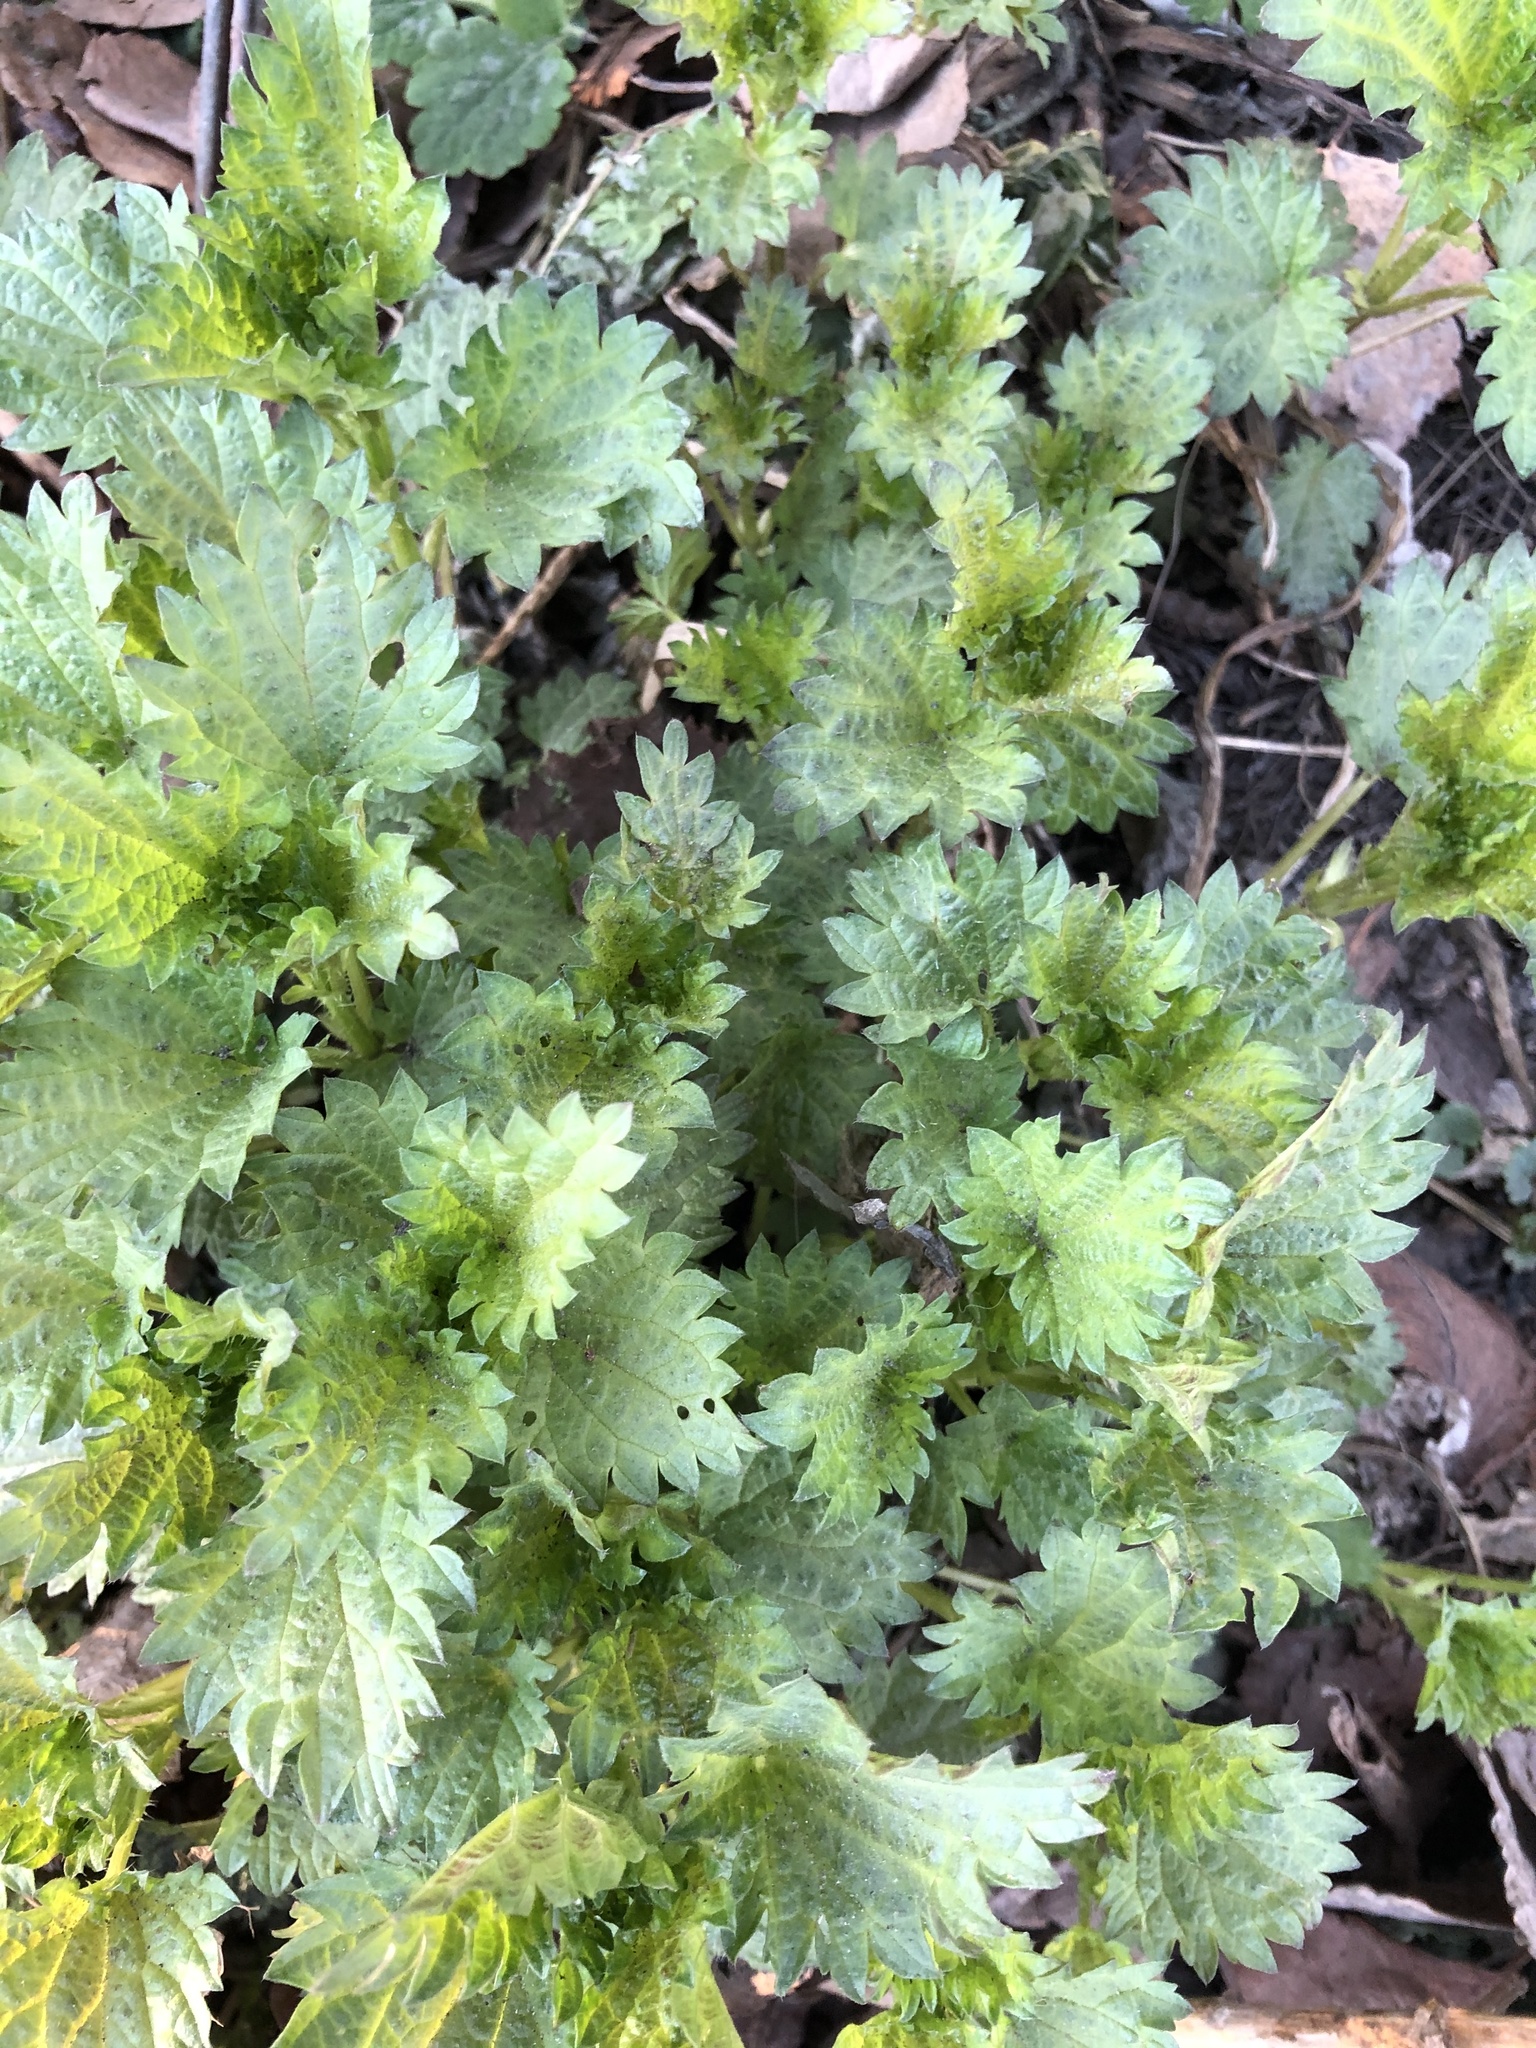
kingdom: Plantae
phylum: Tracheophyta
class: Magnoliopsida
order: Rosales
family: Urticaceae
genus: Urtica
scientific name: Urtica dioica
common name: Common nettle
